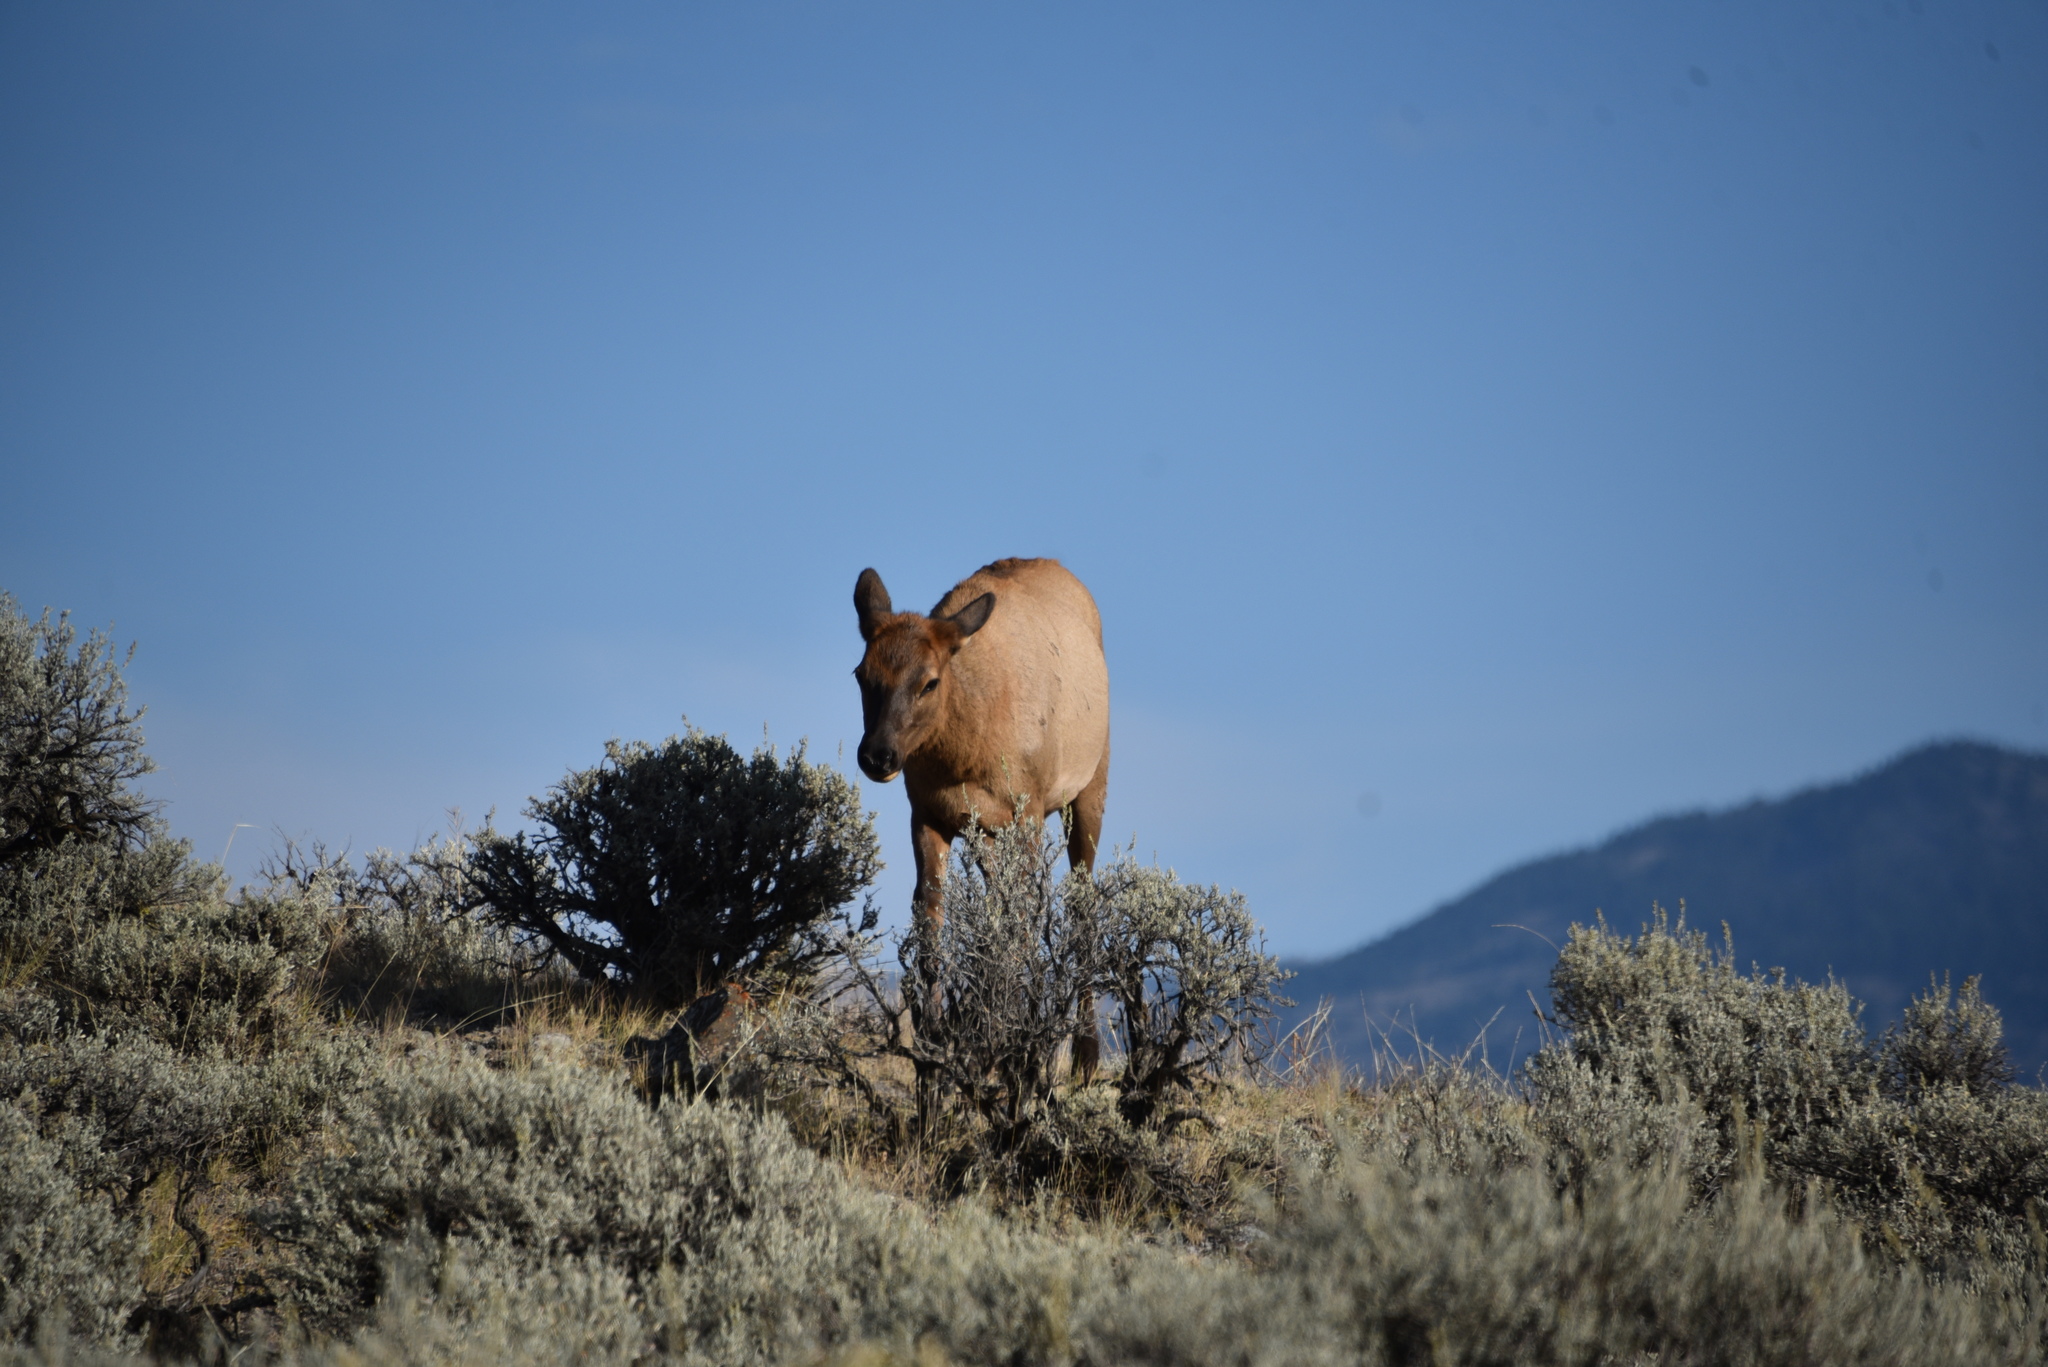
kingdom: Animalia
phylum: Chordata
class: Mammalia
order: Artiodactyla
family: Cervidae
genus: Cervus
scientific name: Cervus elaphus
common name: Red deer
